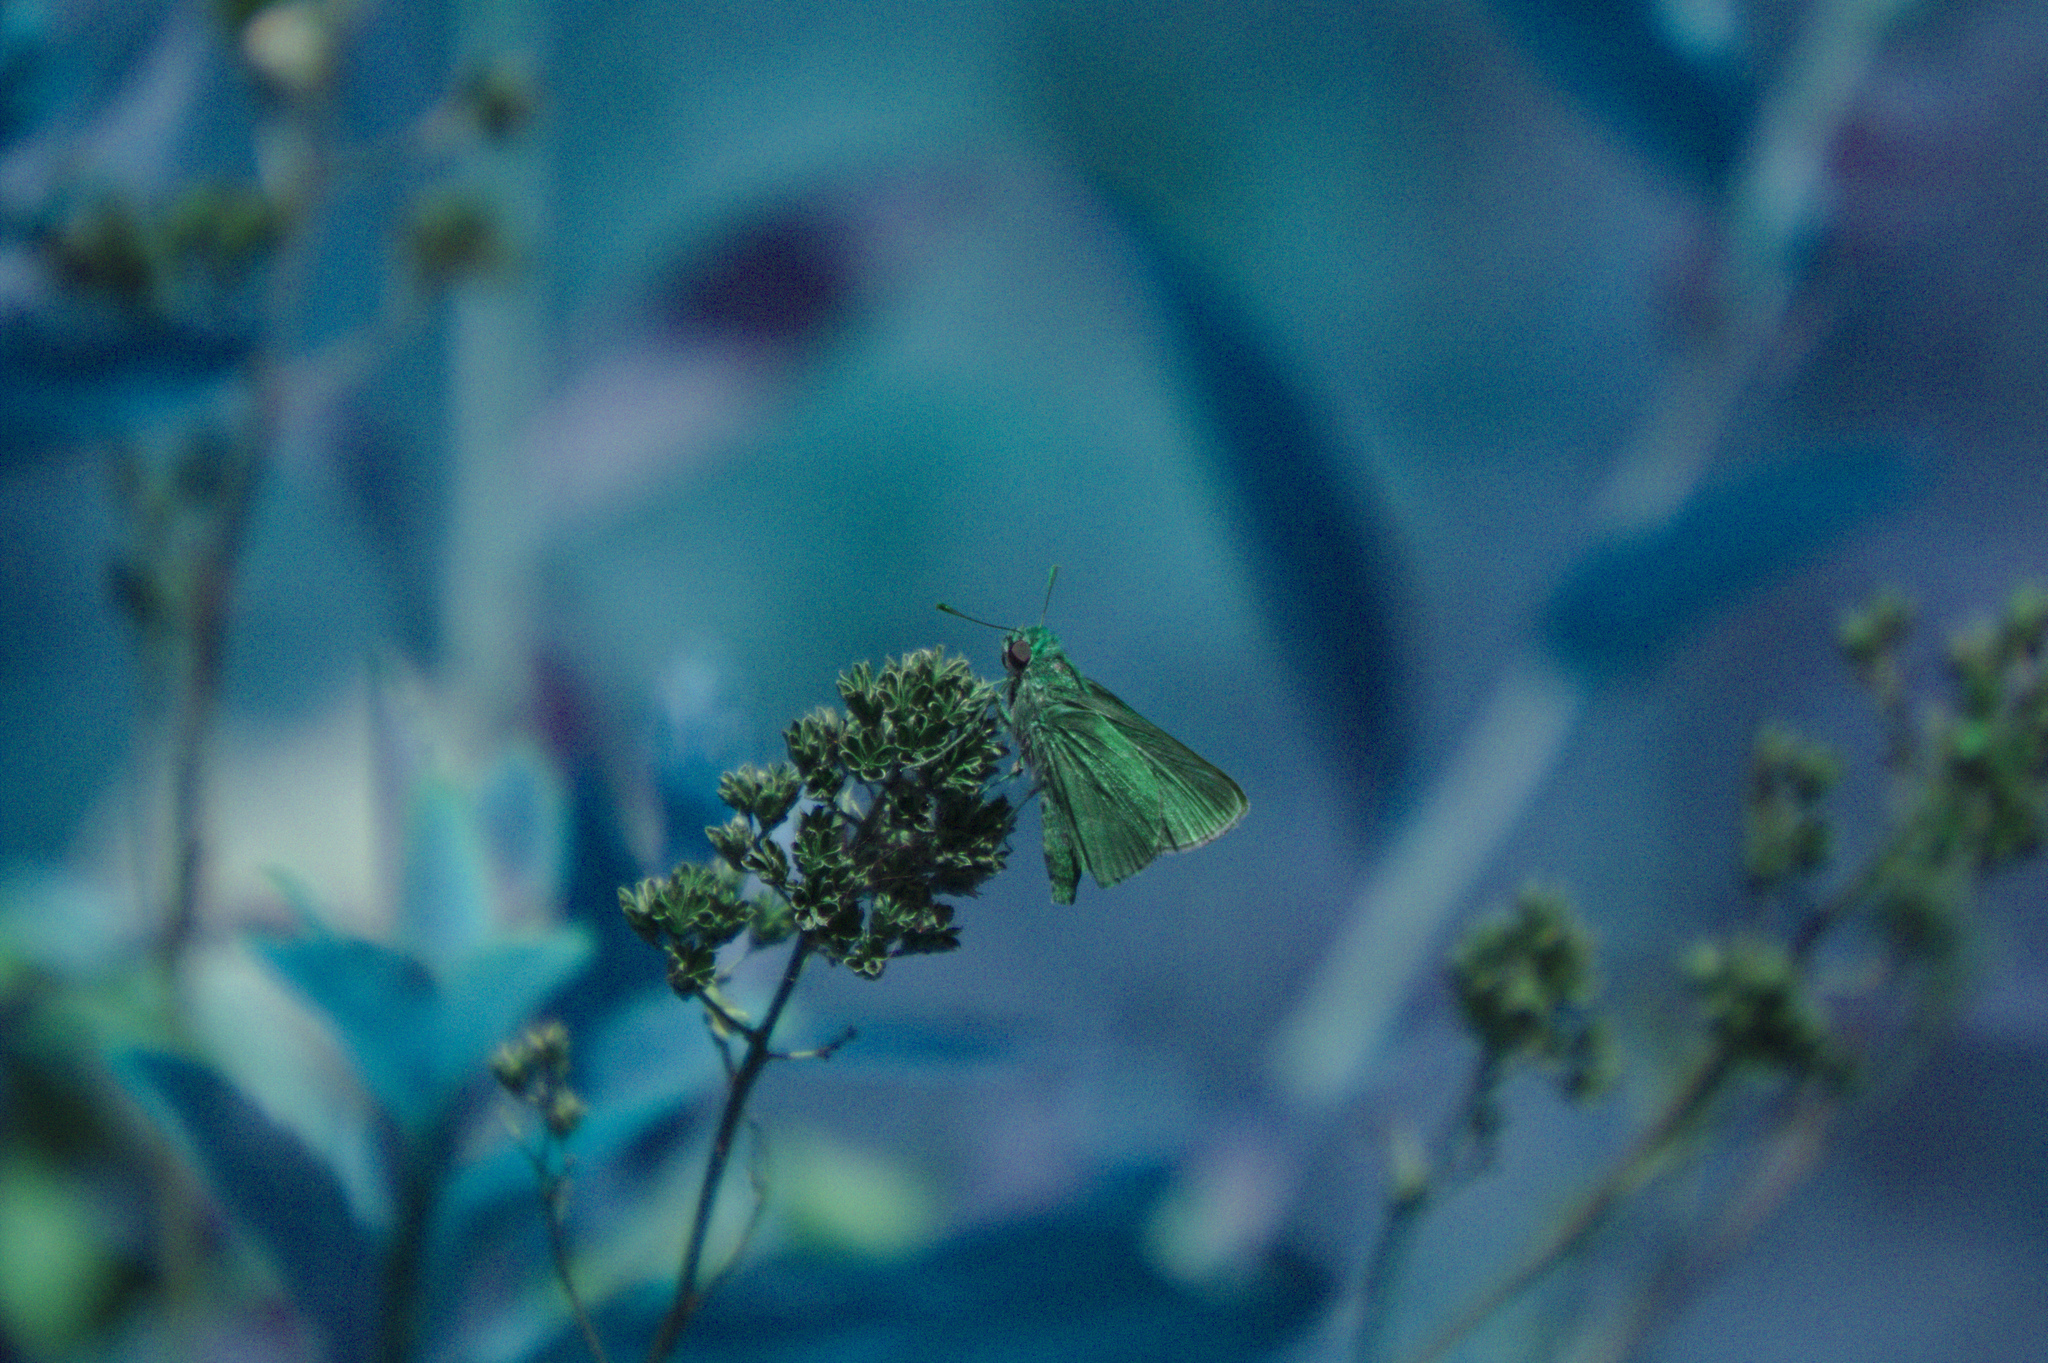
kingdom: Animalia
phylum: Arthropoda
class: Insecta
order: Lepidoptera
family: Hesperiidae
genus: Euphyes
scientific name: Euphyes vestris
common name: Dun skipper
